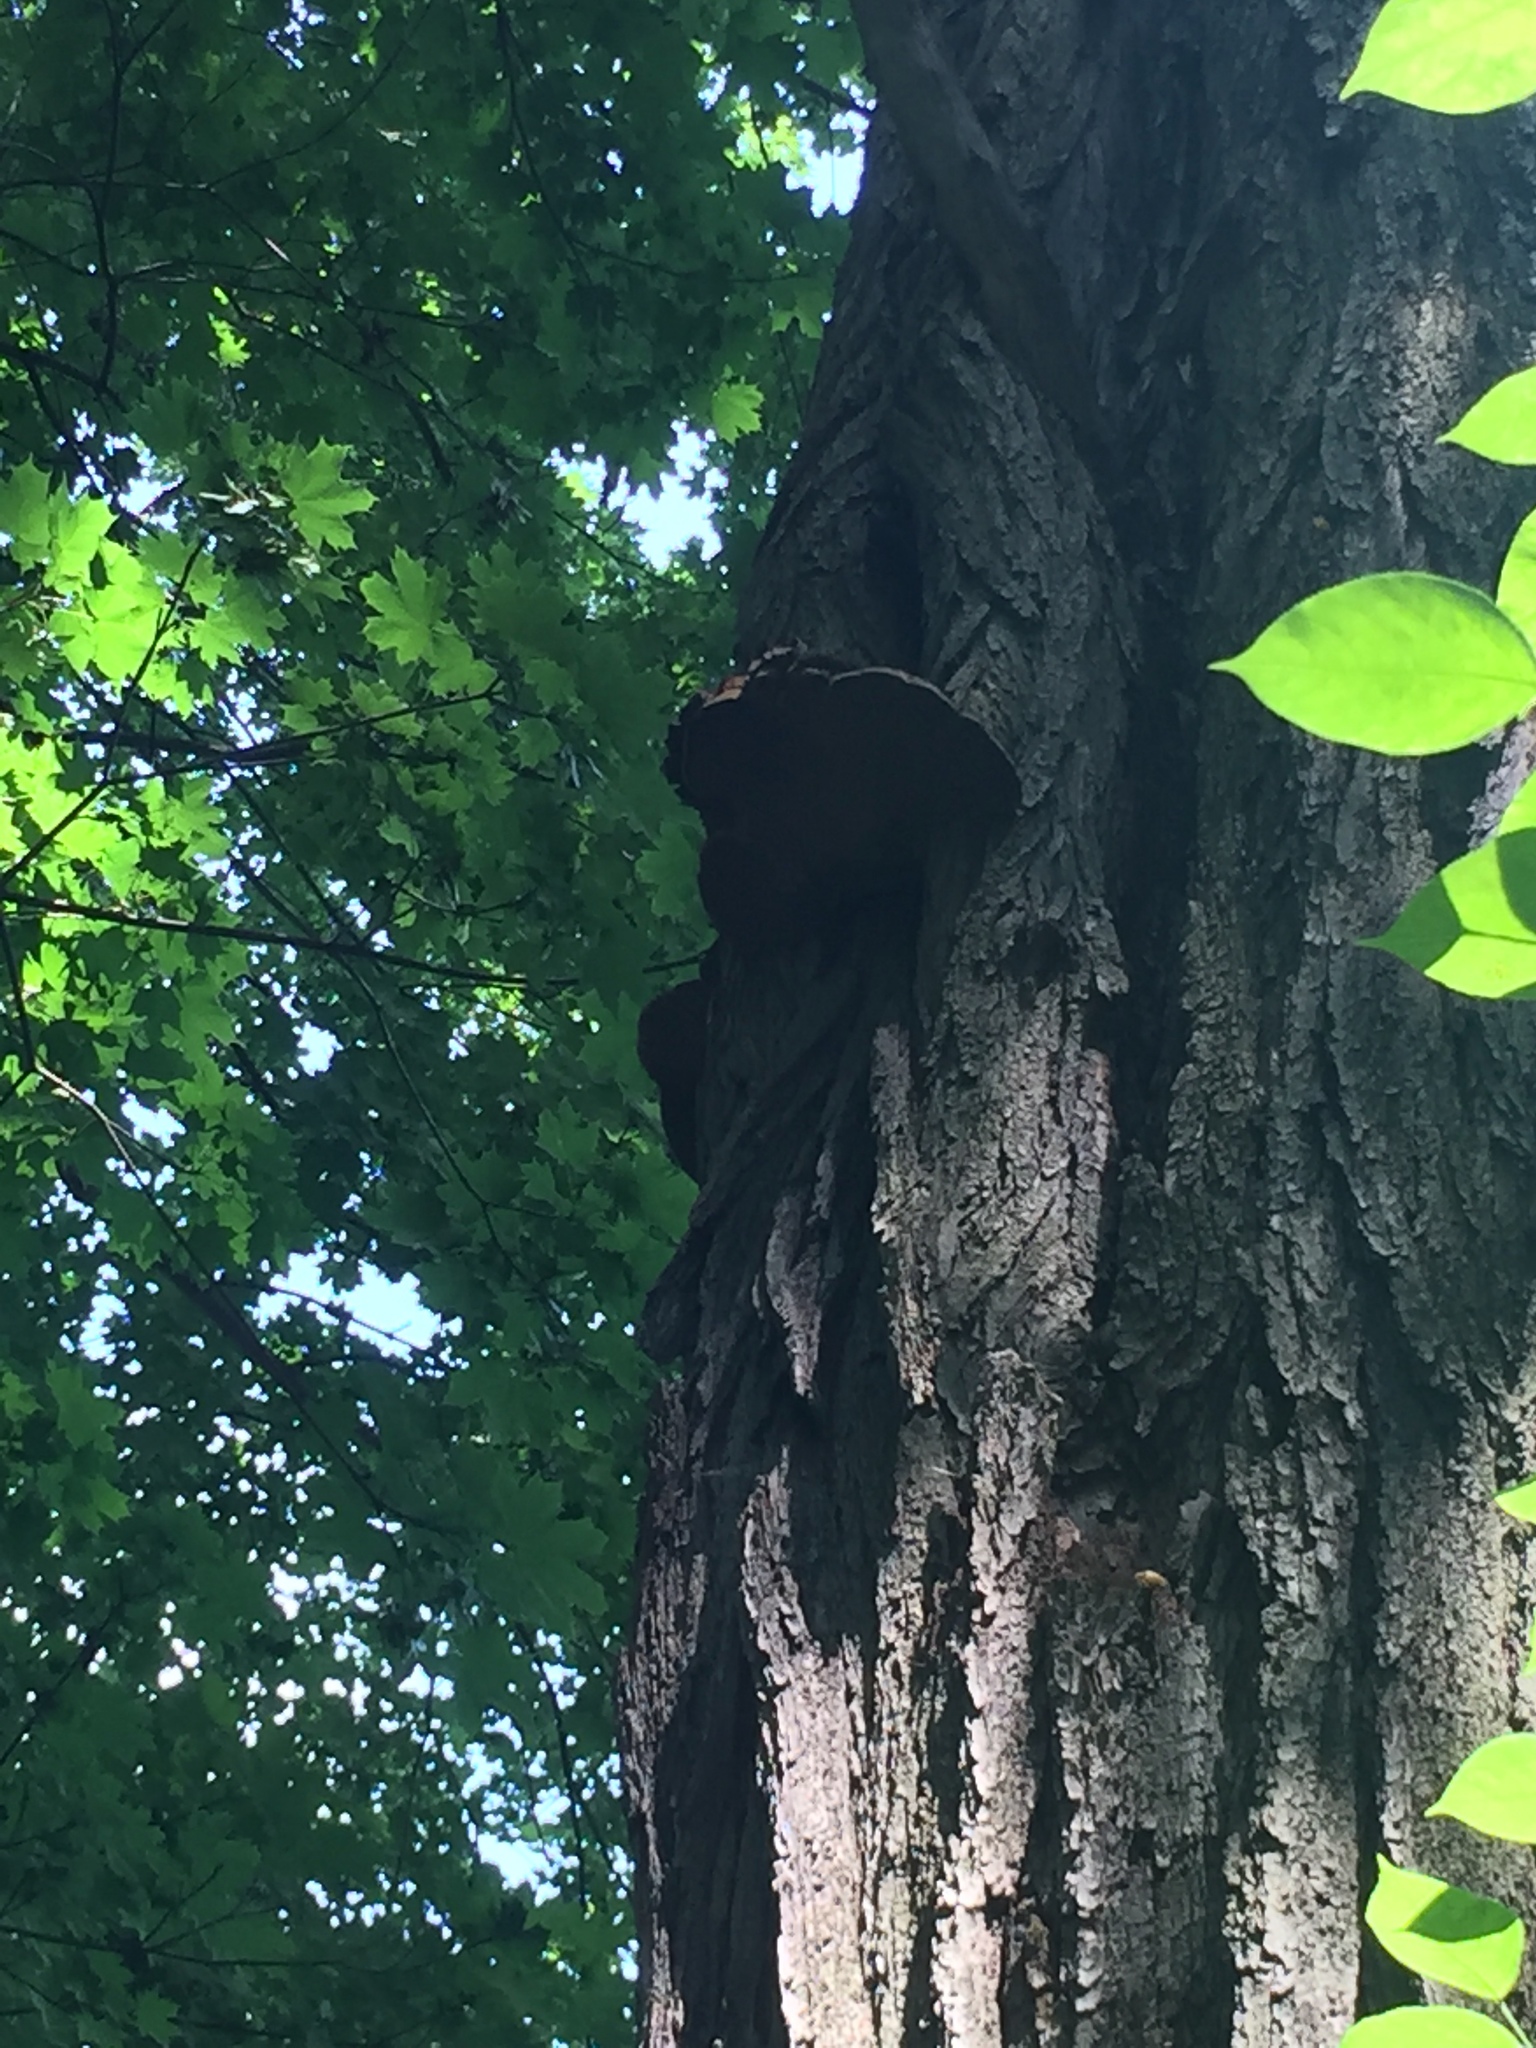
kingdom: Fungi
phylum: Basidiomycota
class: Agaricomycetes
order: Hymenochaetales
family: Hymenochaetaceae
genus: Phellinus
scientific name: Phellinus robiniae
